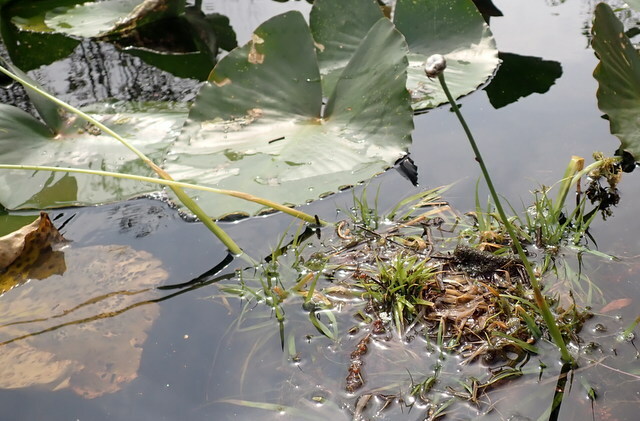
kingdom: Plantae
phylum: Tracheophyta
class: Liliopsida
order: Poales
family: Eriocaulaceae
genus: Eriocaulon
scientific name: Eriocaulon compressum
